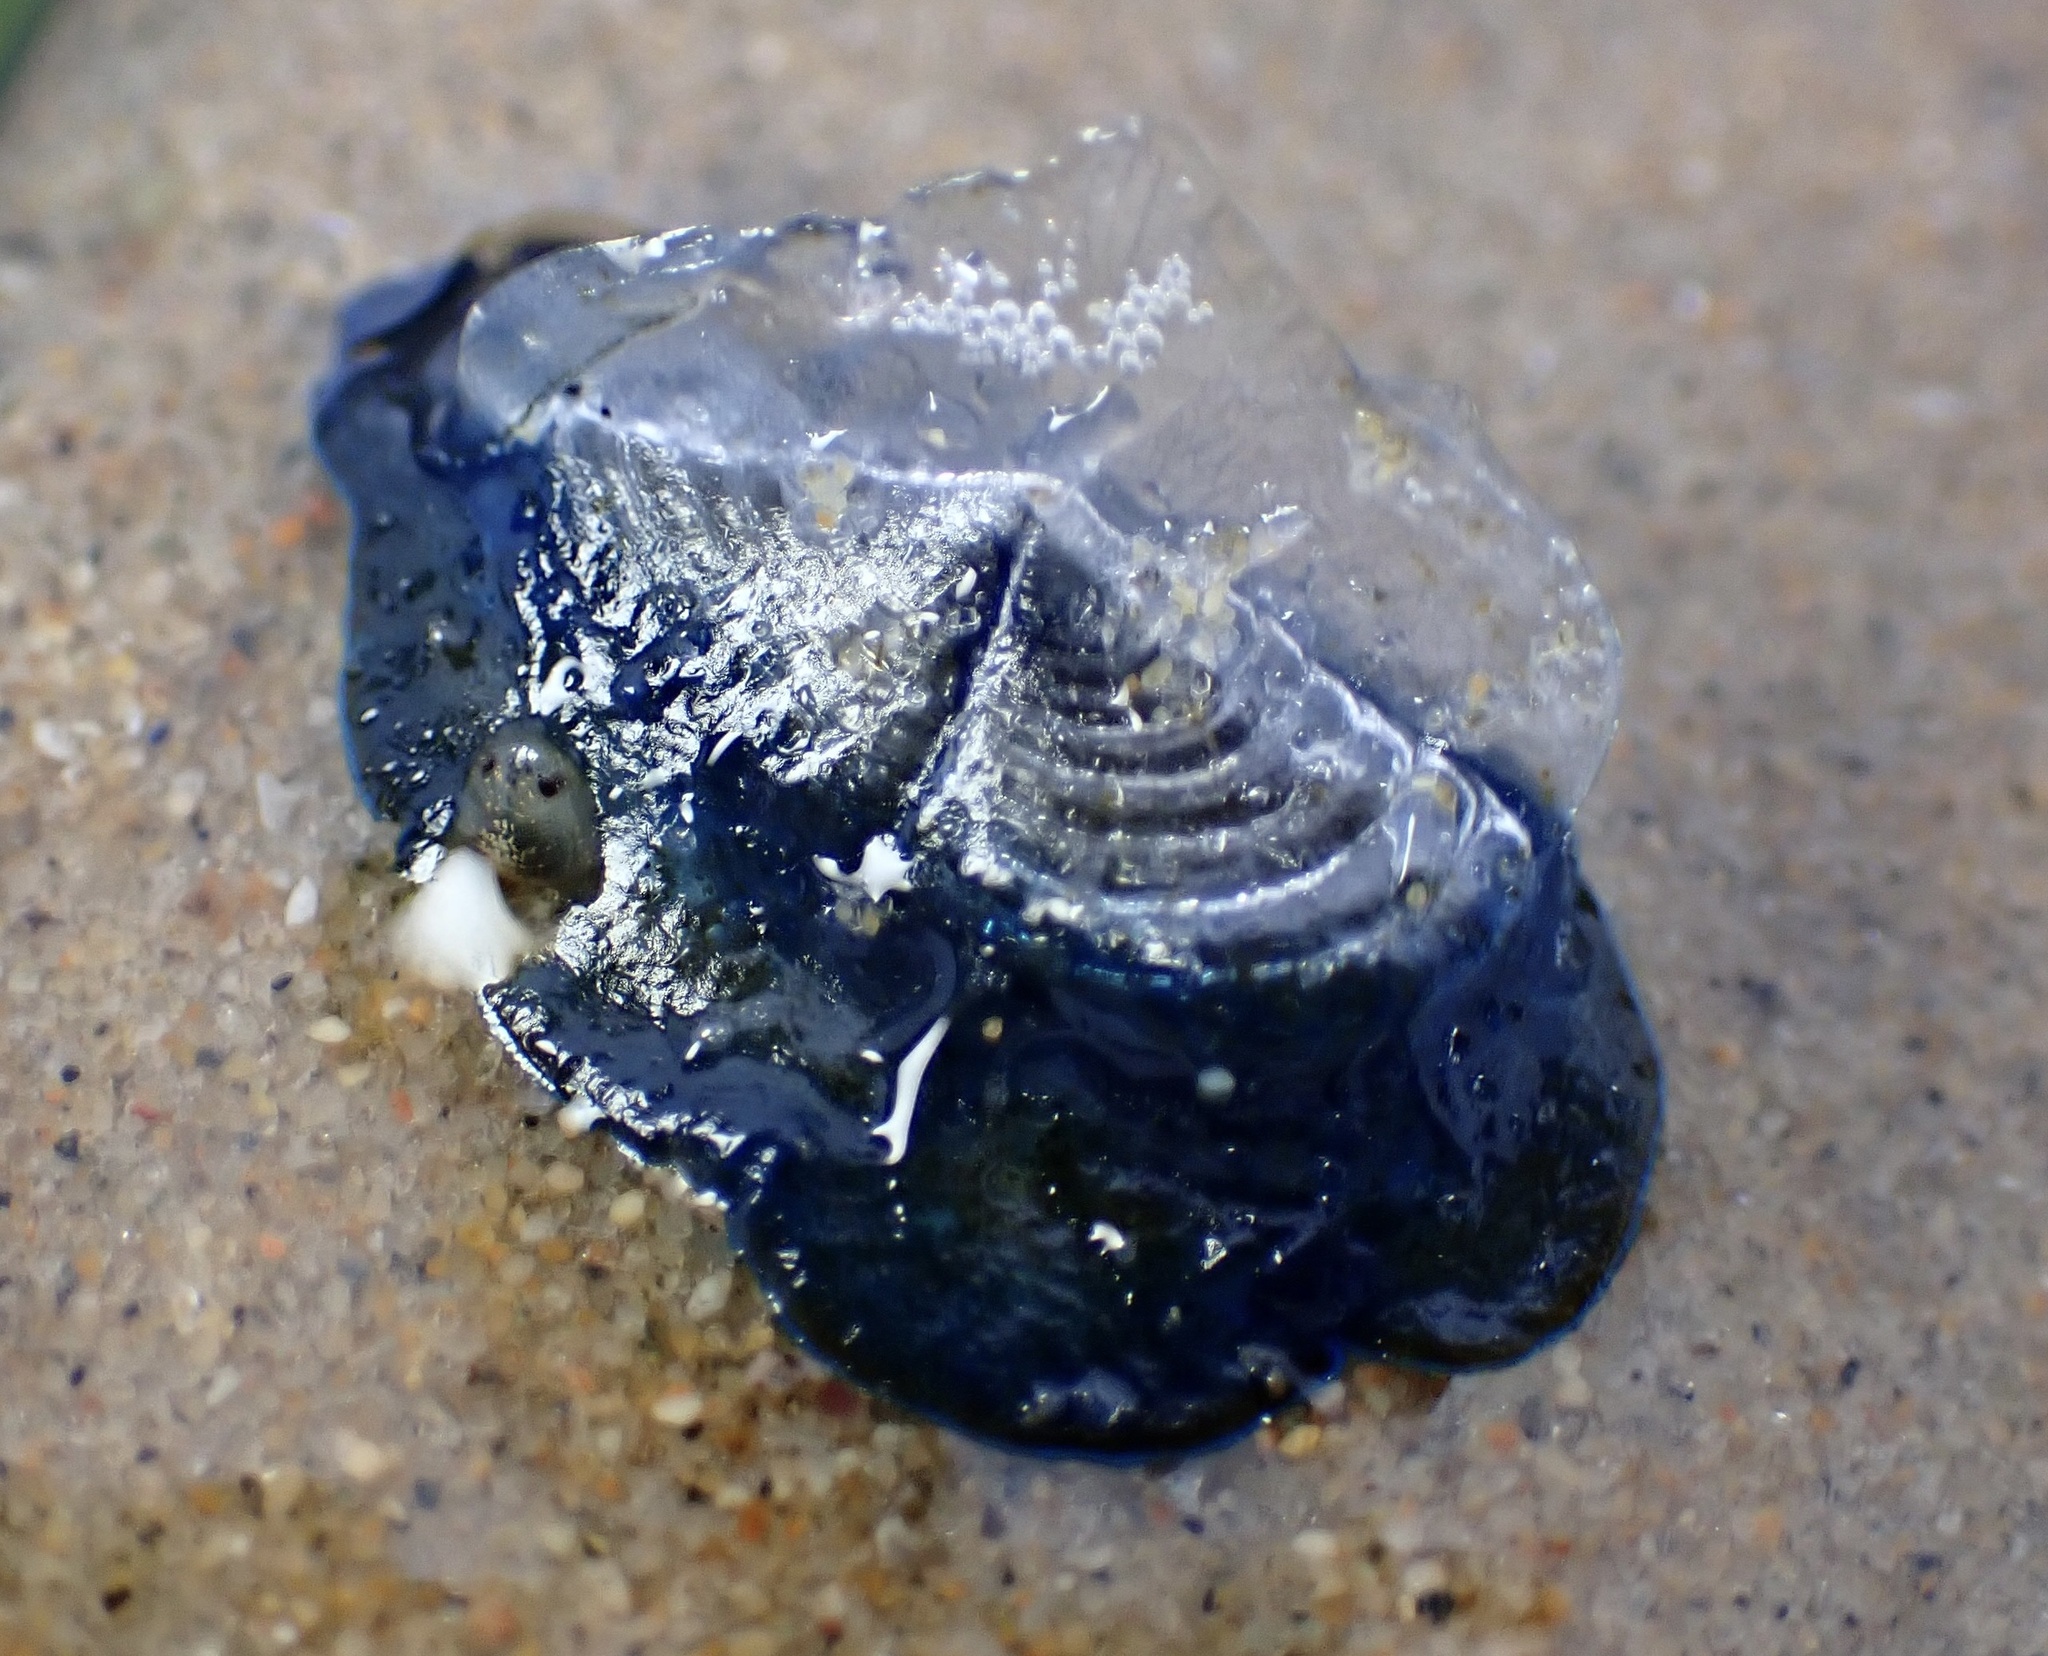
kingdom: Animalia
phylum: Cnidaria
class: Hydrozoa
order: Anthoathecata
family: Porpitidae
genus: Velella
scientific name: Velella velella
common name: By-the-wind-sailor
